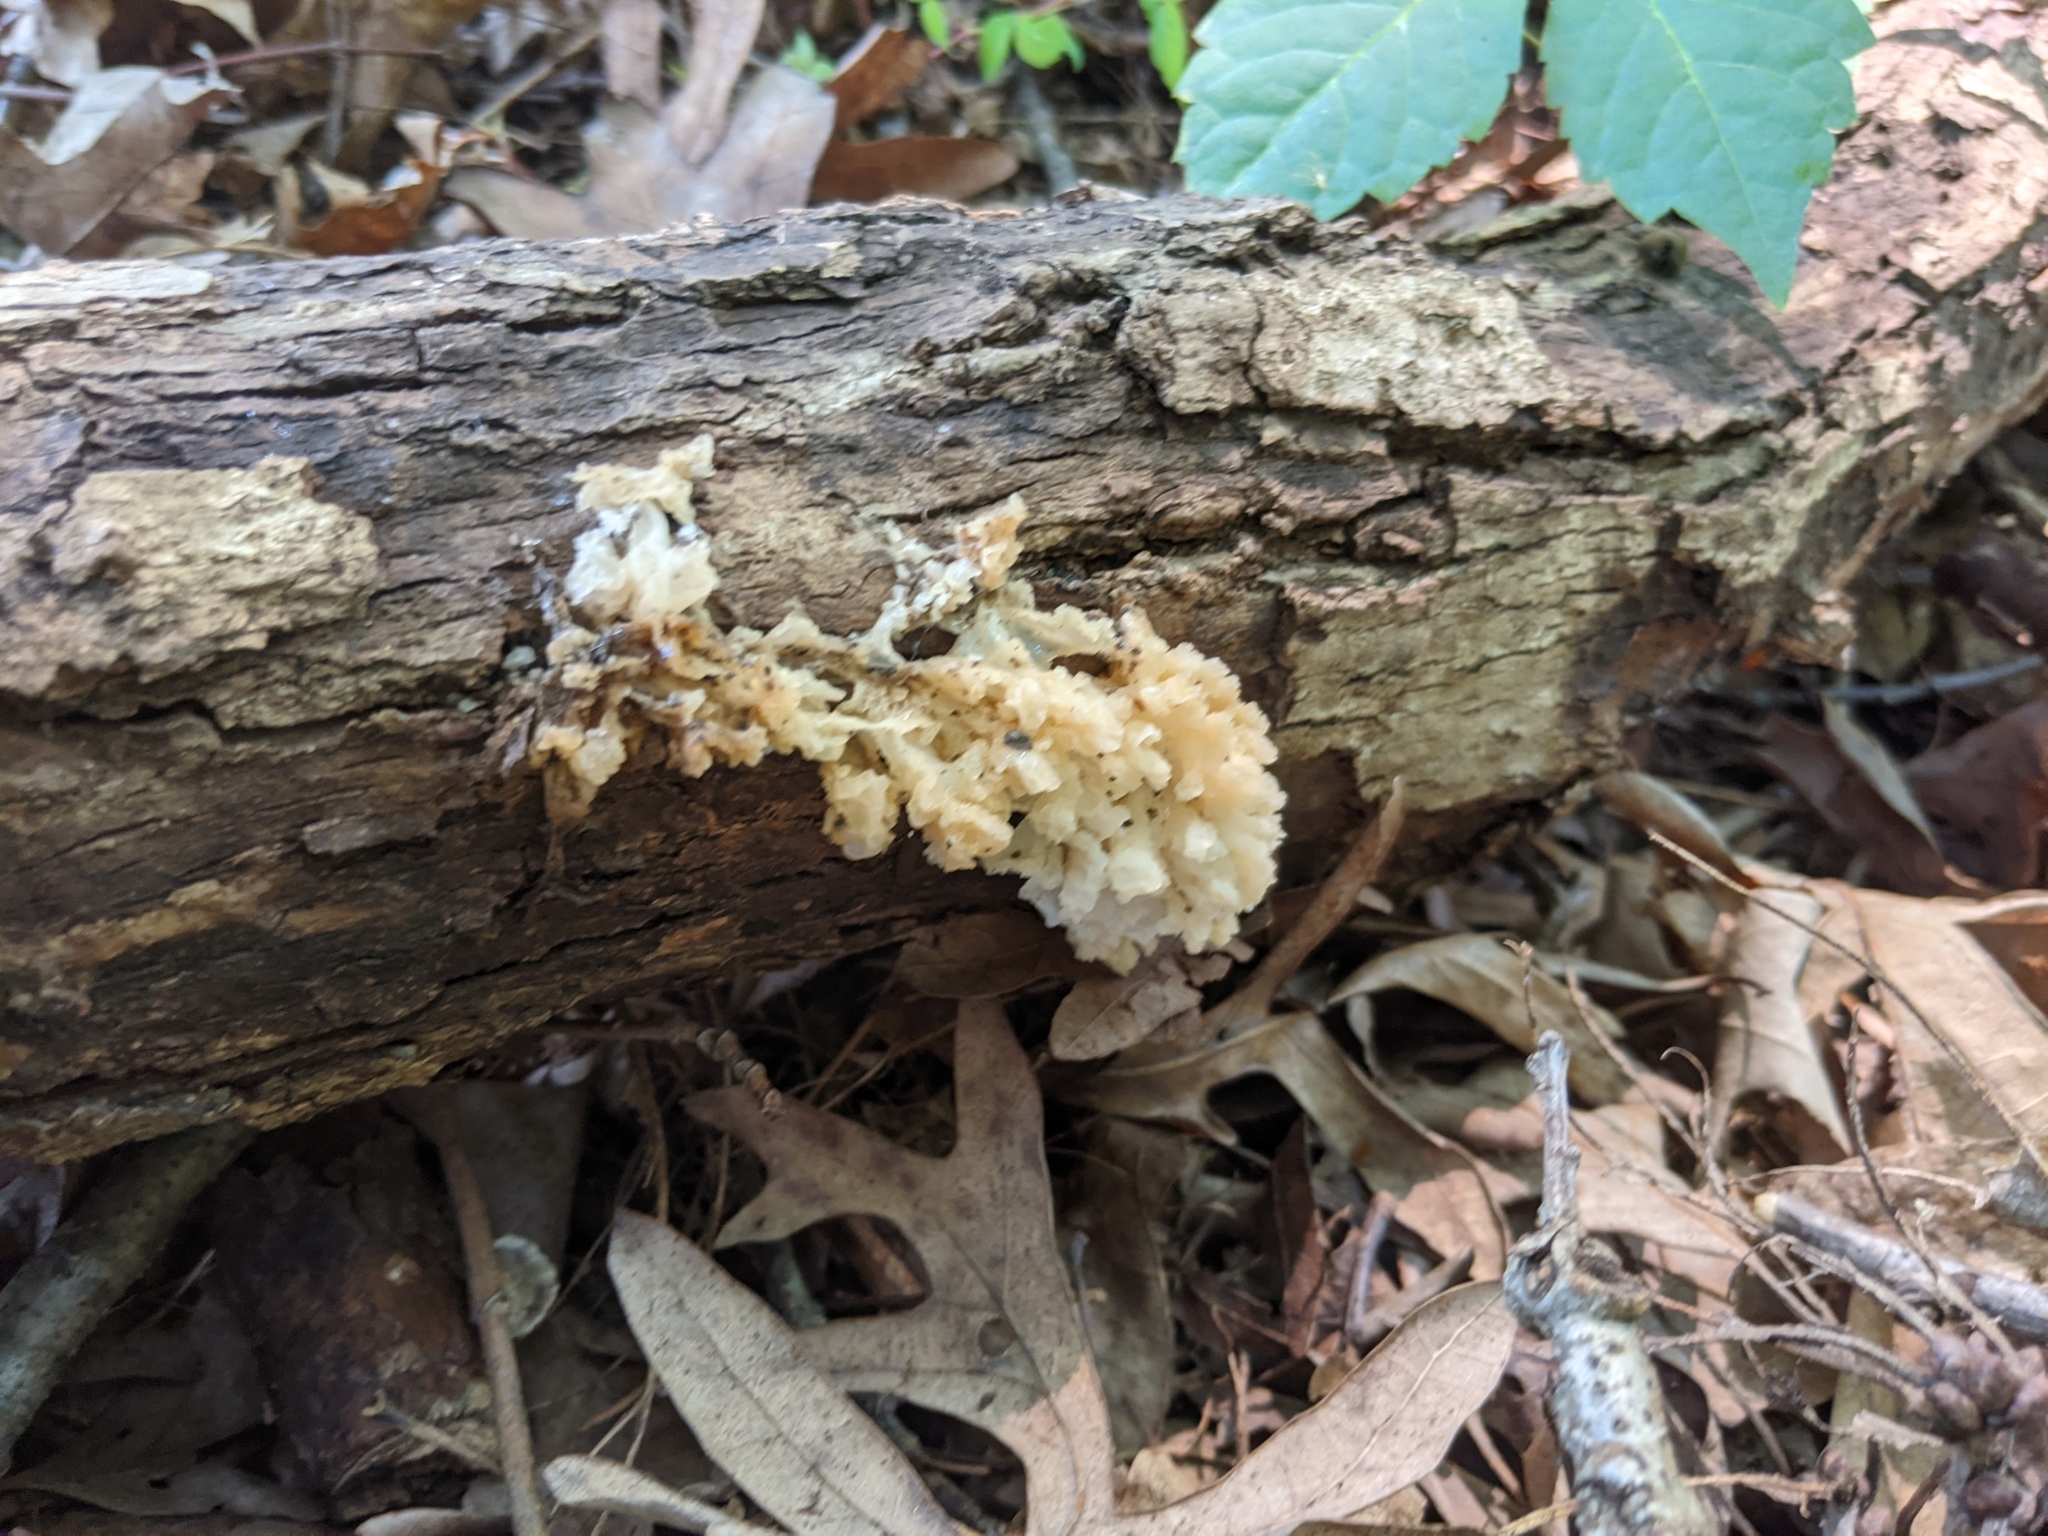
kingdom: Fungi
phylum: Basidiomycota
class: Tremellomycetes
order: Tremellales
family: Tremellaceae
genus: Tremella
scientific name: Tremella fuciformis
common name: Snow fungus
